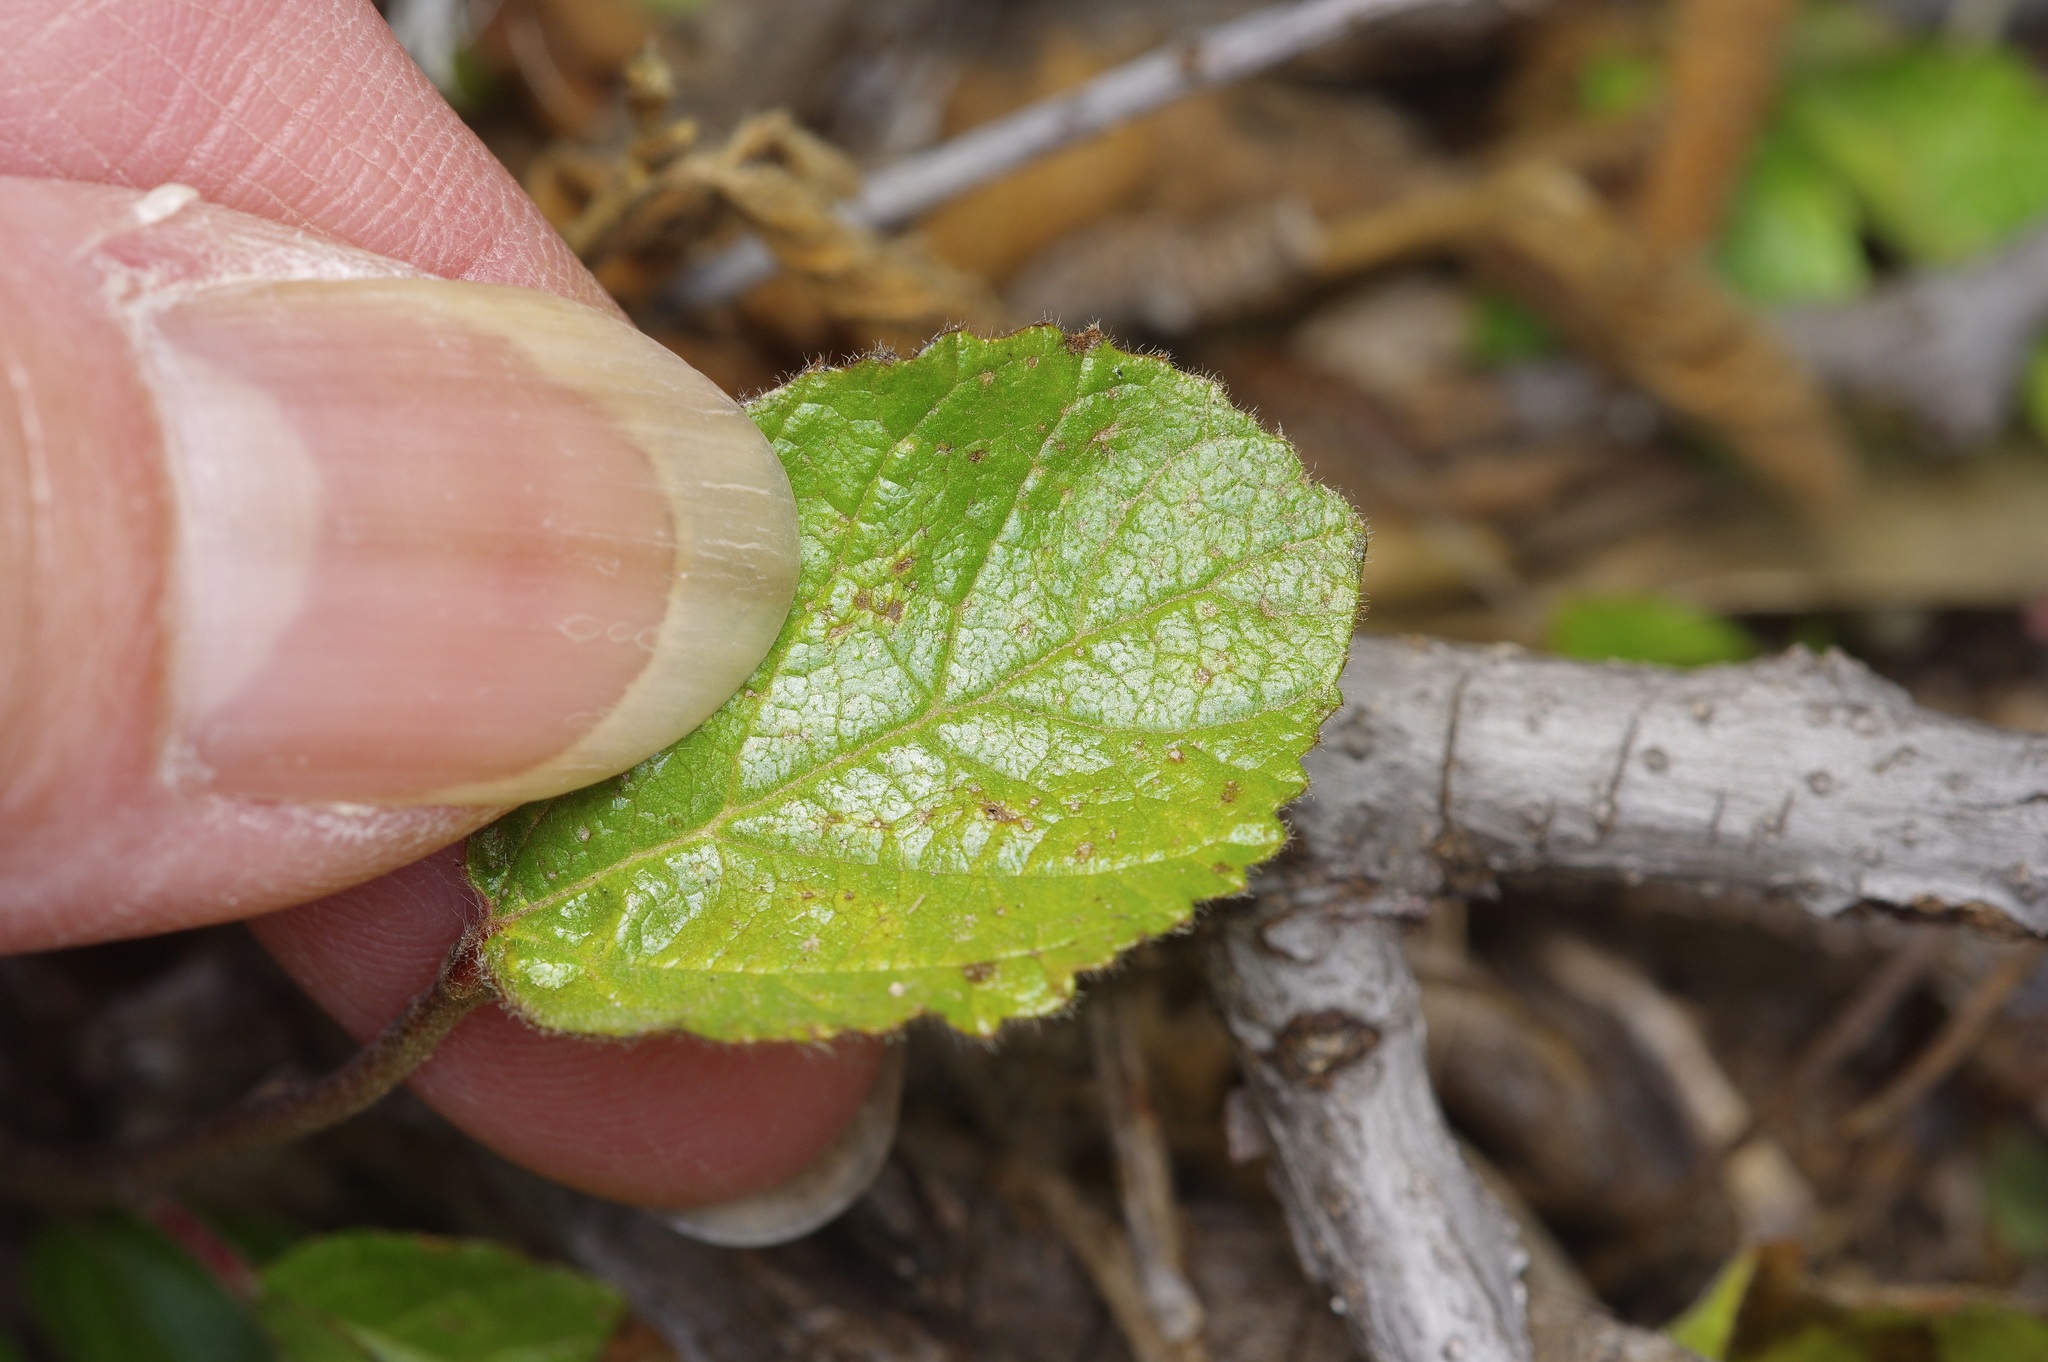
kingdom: Plantae
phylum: Tracheophyta
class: Magnoliopsida
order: Rosales
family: Rhamnaceae
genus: Colubrina
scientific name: Colubrina texensis
